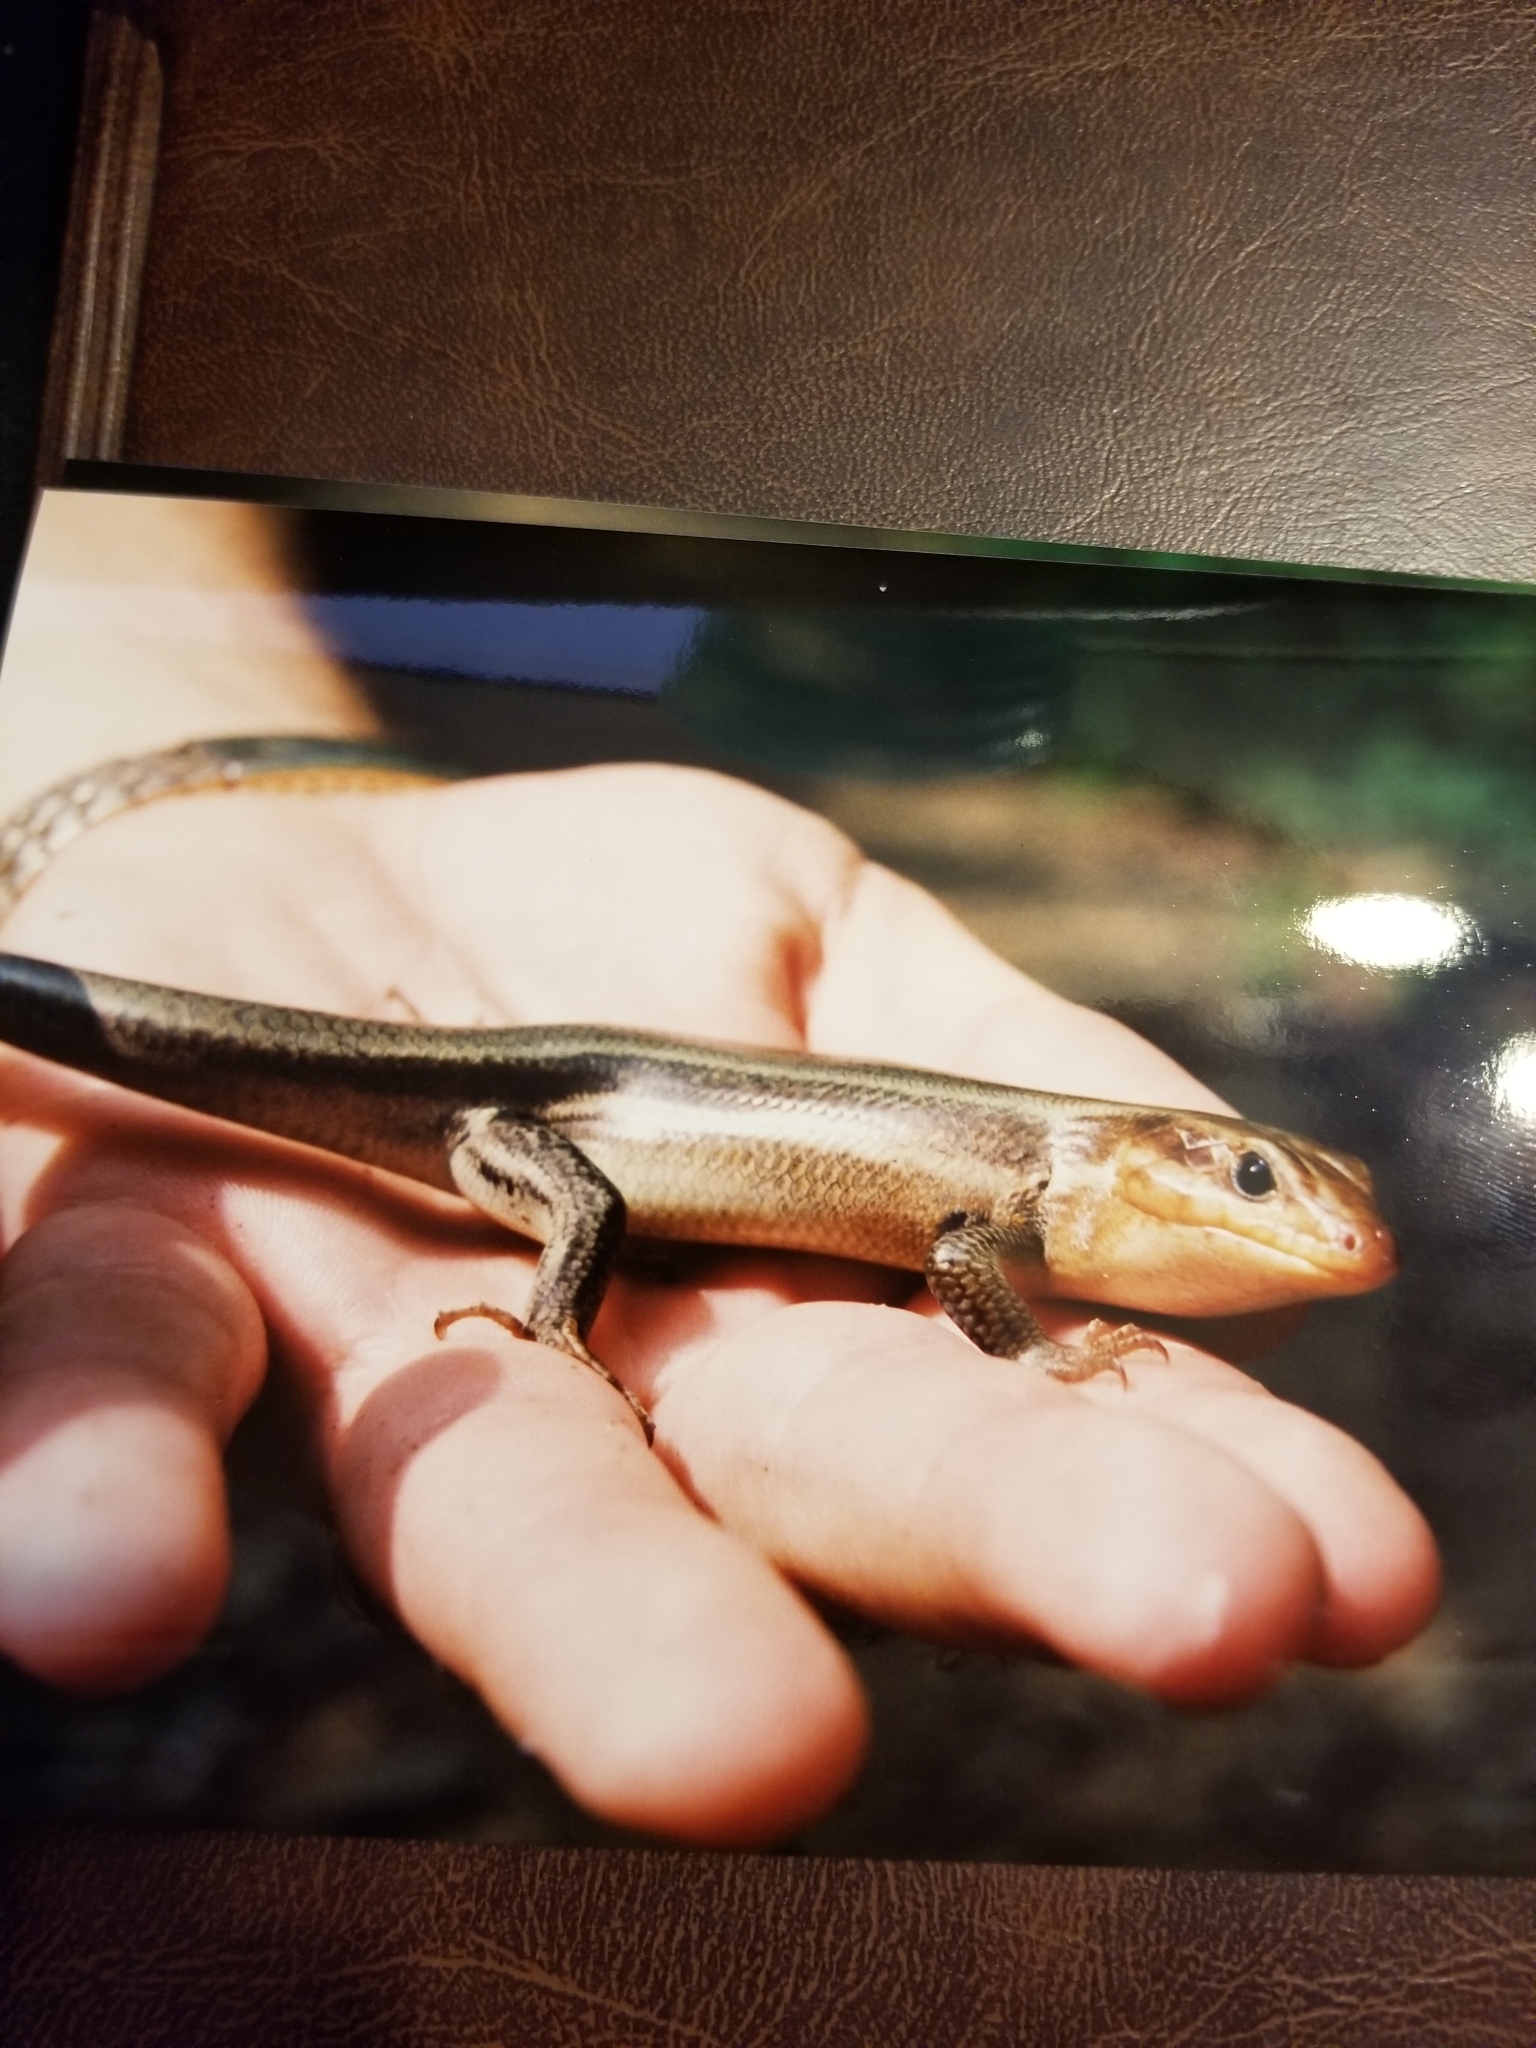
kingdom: Animalia
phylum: Chordata
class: Squamata
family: Scincidae
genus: Plestiodon
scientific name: Plestiodon laticeps
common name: Broadhead skink
